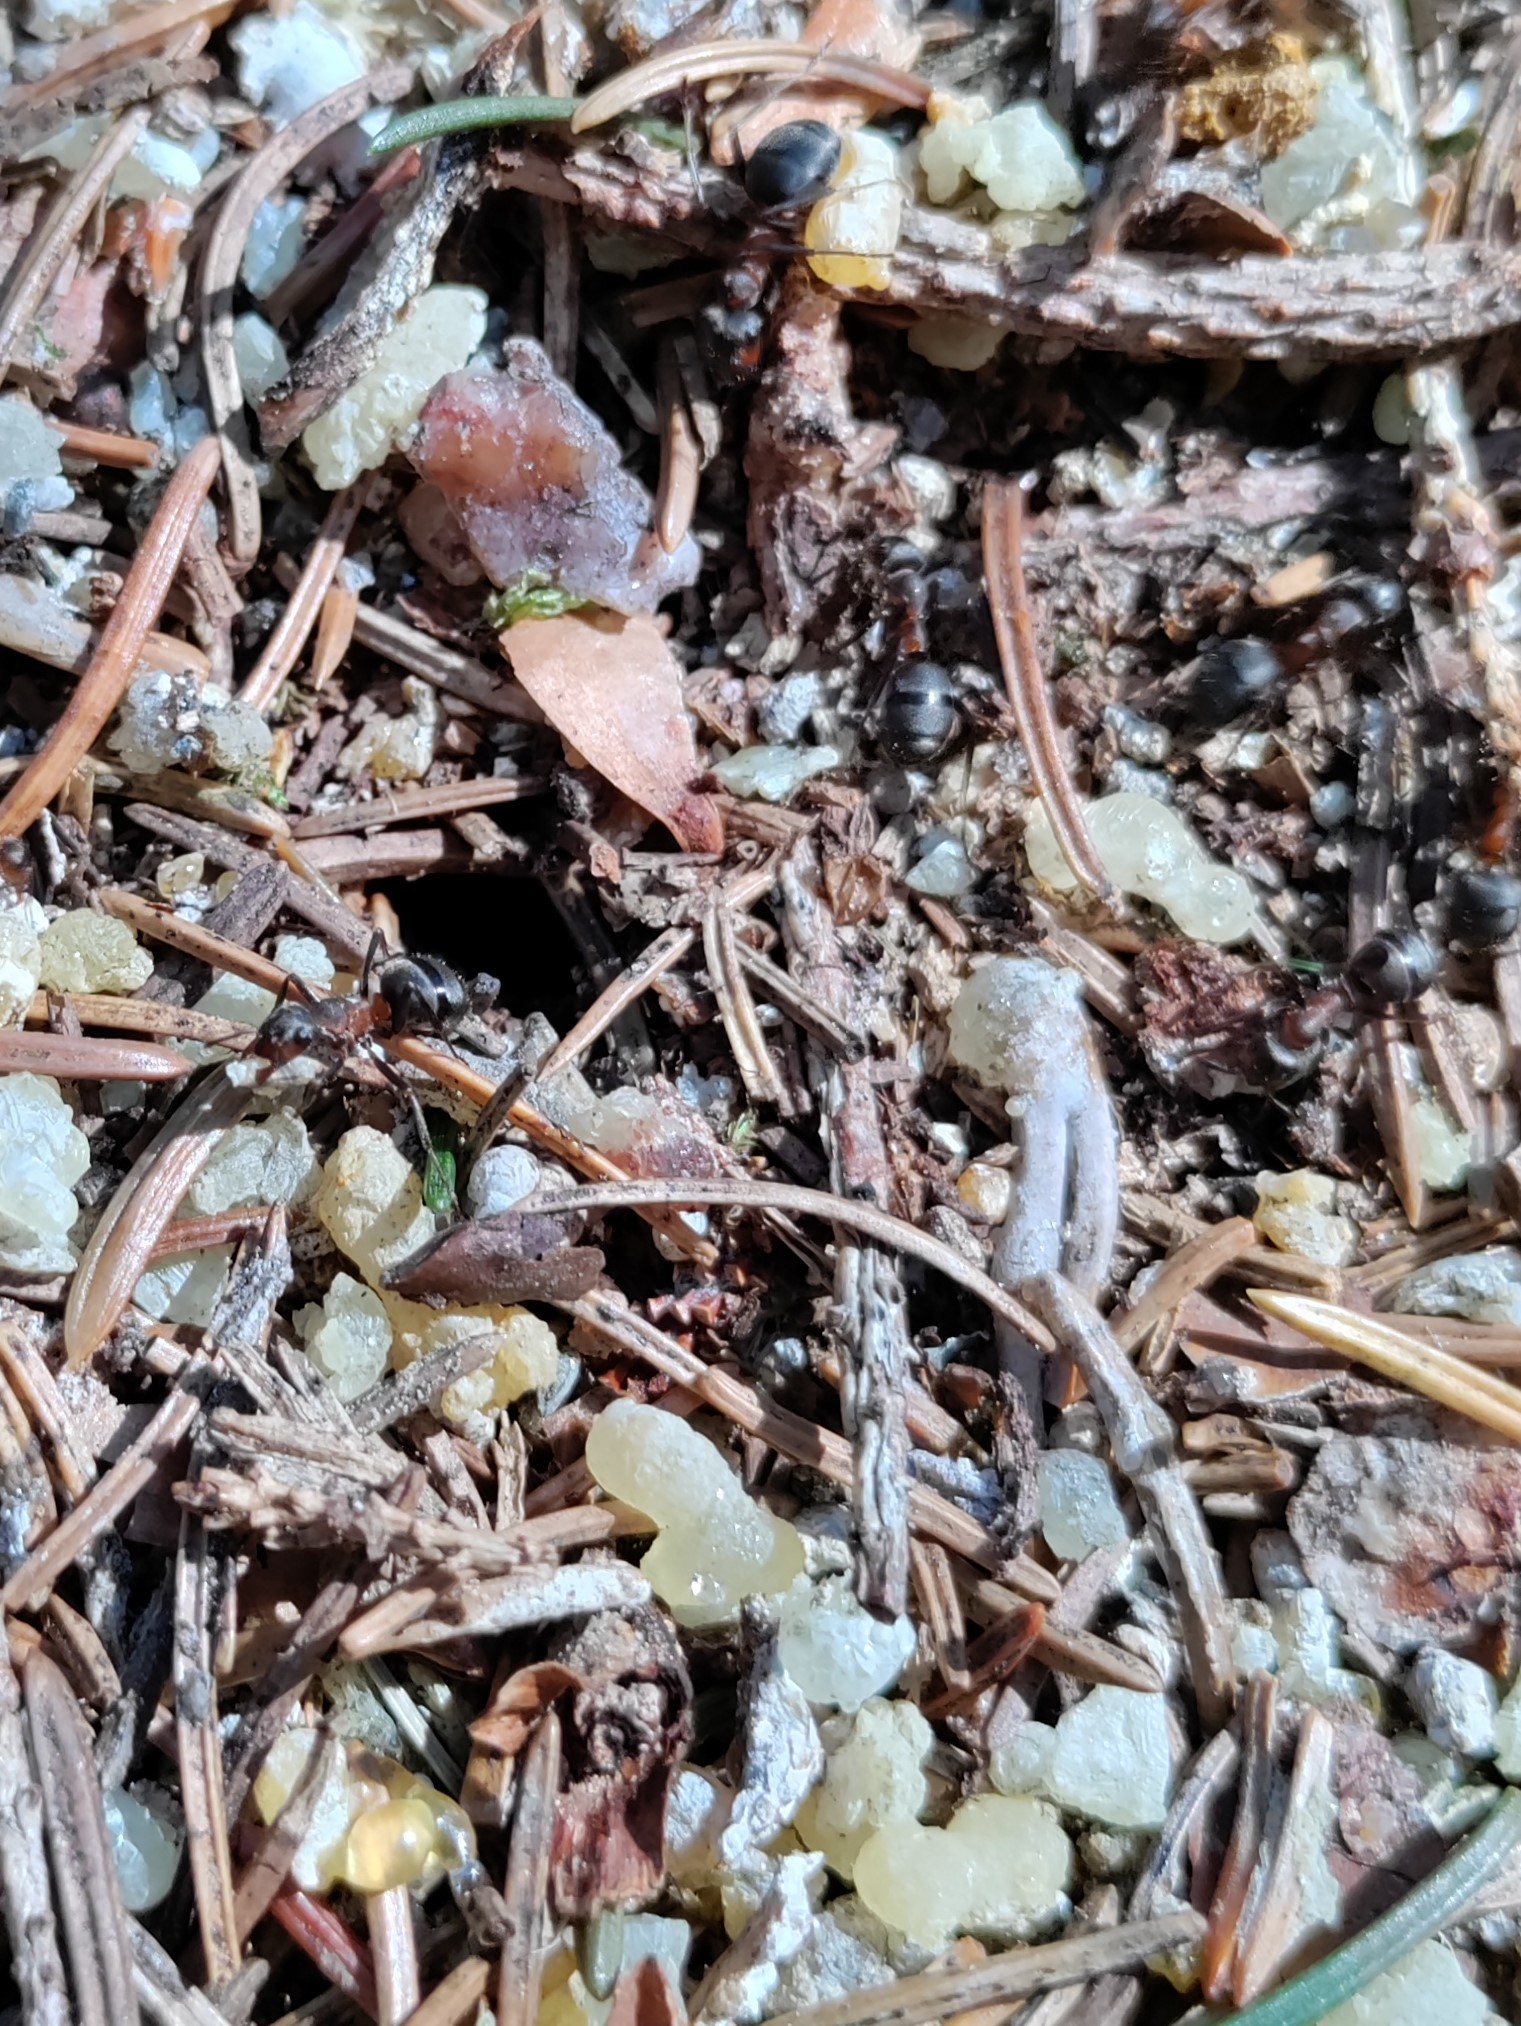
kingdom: Animalia
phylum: Arthropoda
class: Insecta
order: Hymenoptera
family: Formicidae
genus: Formica
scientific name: Formica
